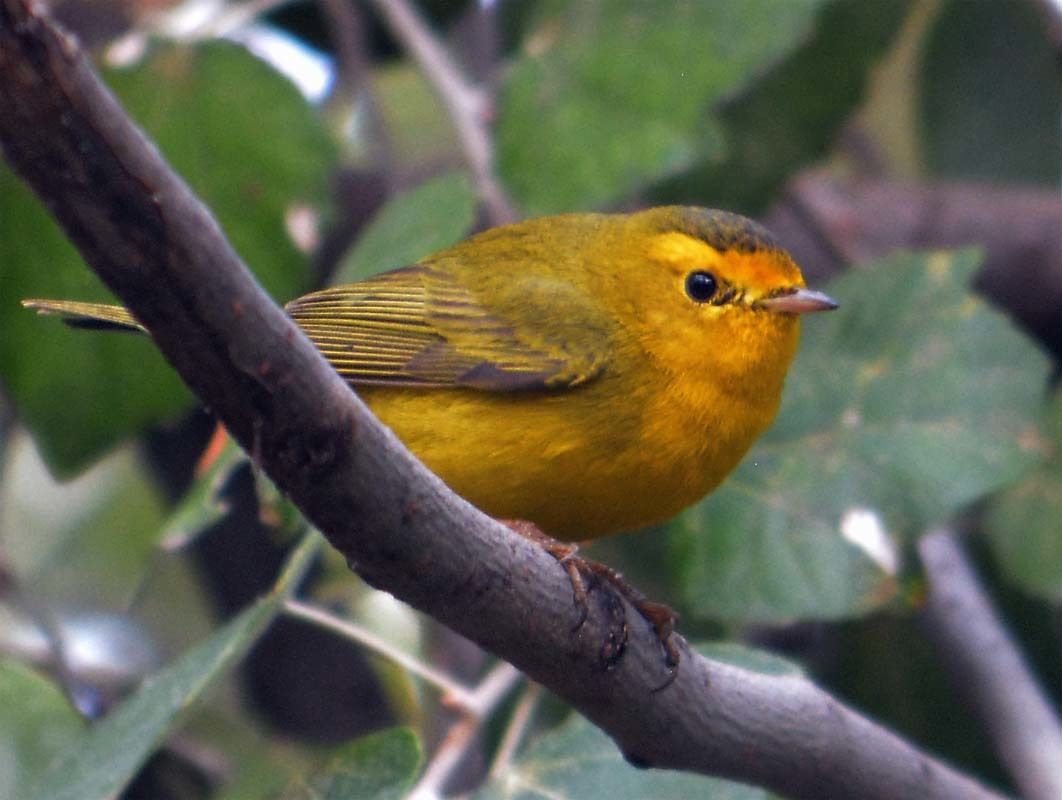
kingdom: Animalia
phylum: Chordata
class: Aves
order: Passeriformes
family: Parulidae
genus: Cardellina
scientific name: Cardellina pusilla
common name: Wilson's warbler
